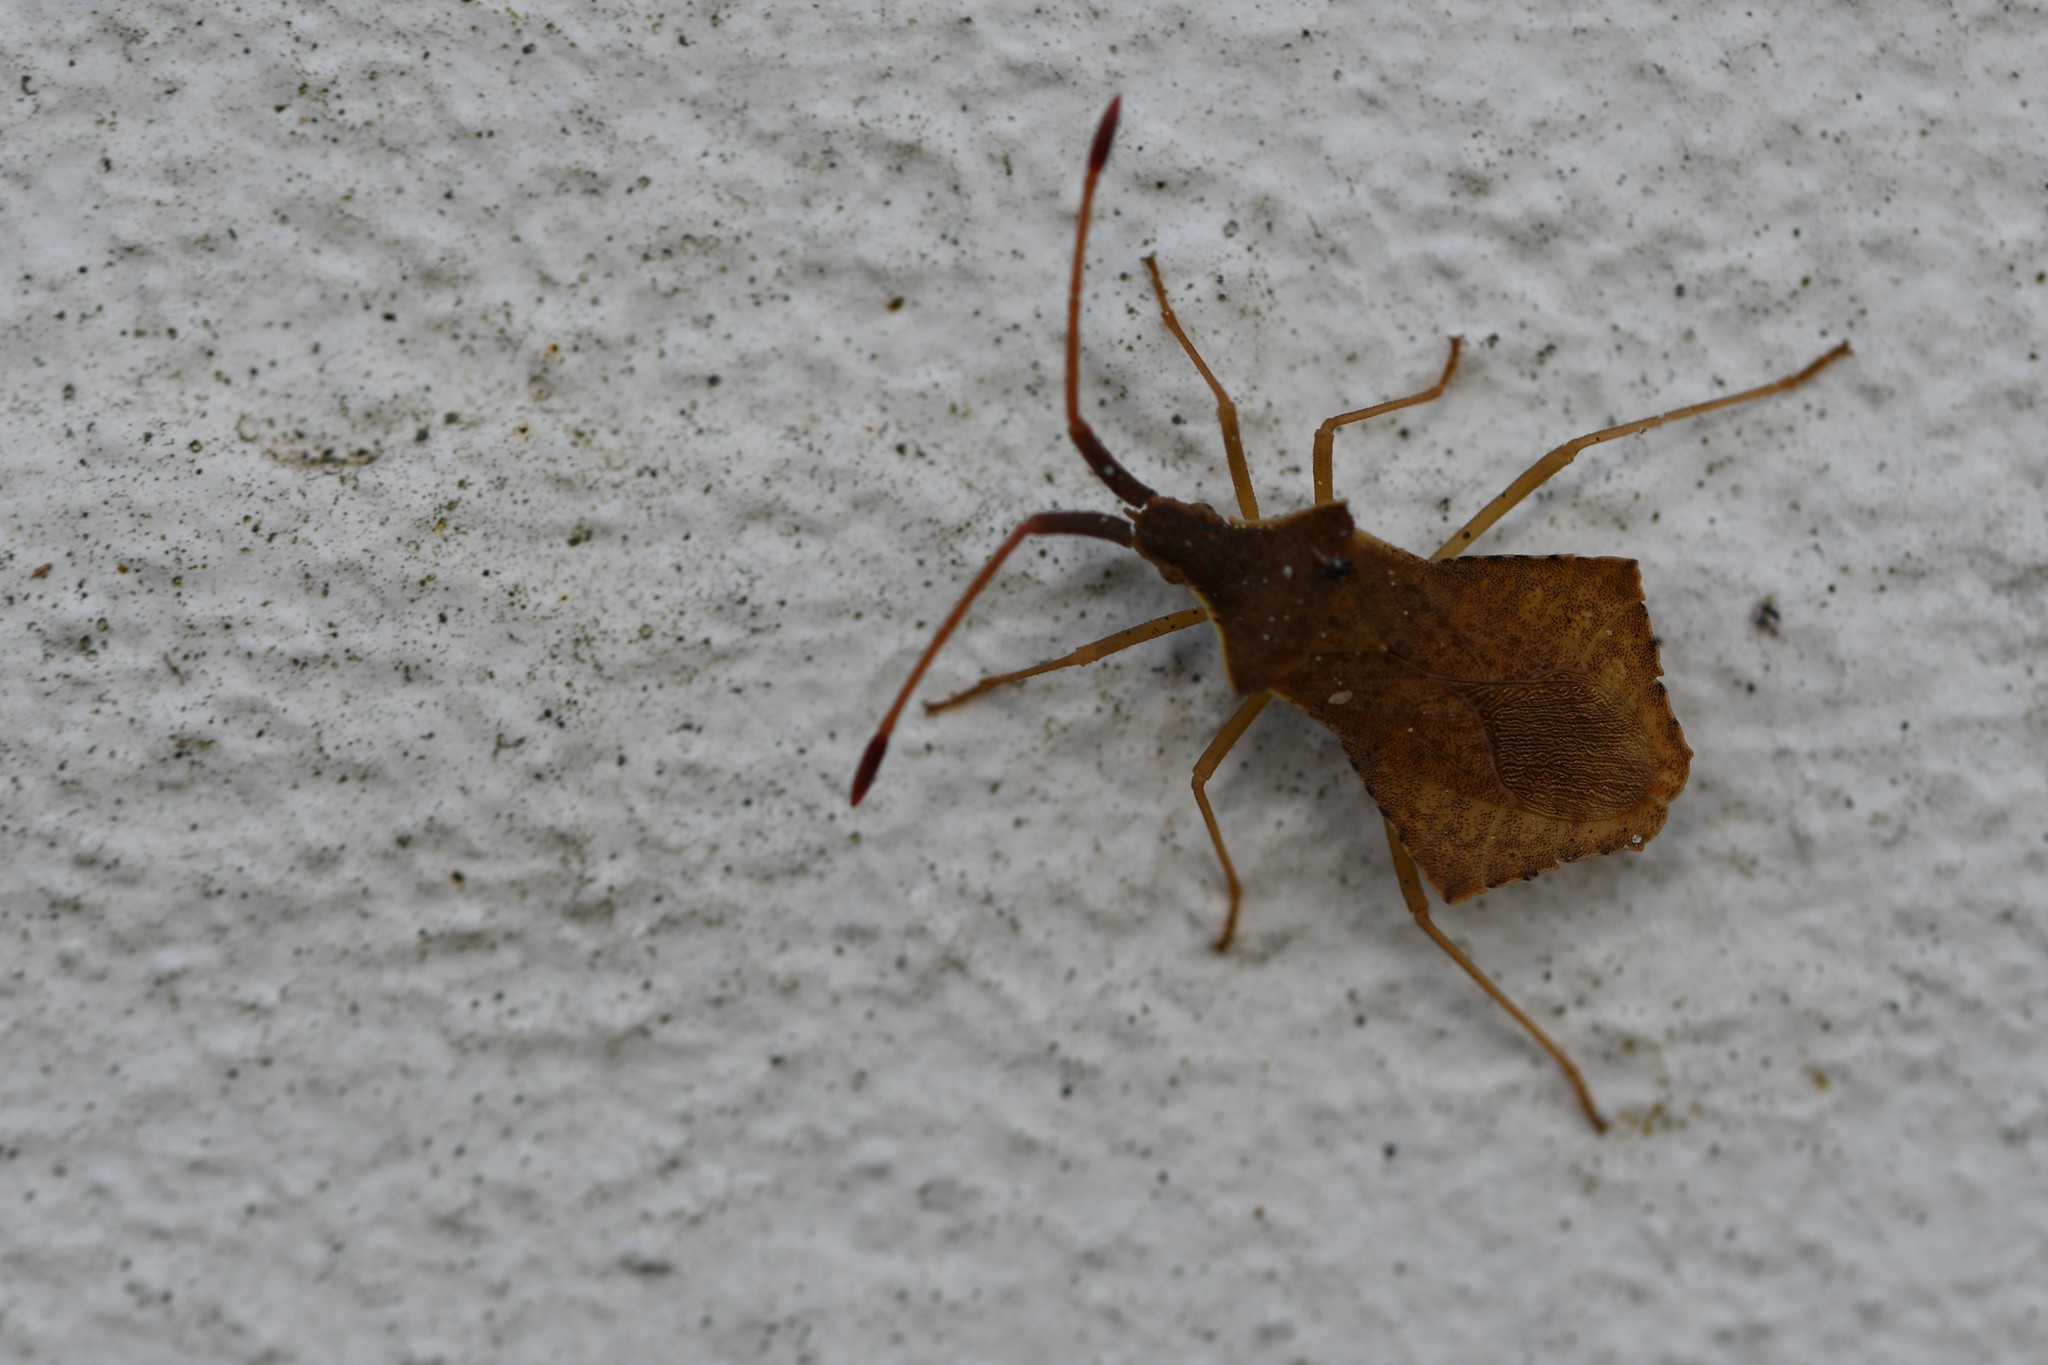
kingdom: Animalia
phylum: Arthropoda
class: Insecta
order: Hemiptera
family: Coreidae
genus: Syromastus
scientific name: Syromastus rhombeus
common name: Rhombic leatherbug
